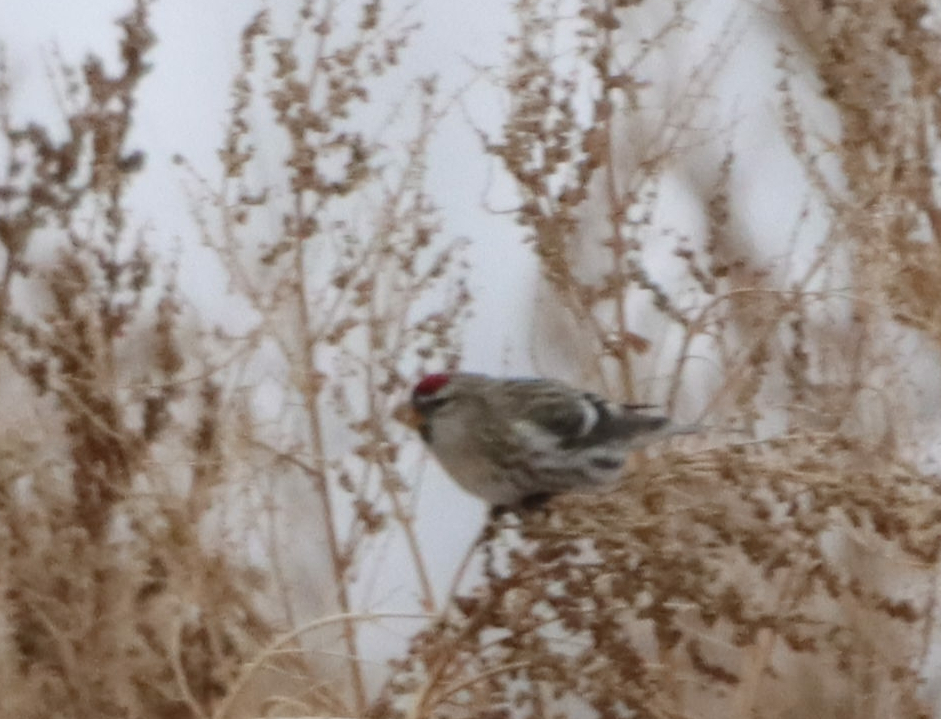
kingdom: Animalia
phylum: Chordata
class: Aves
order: Passeriformes
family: Fringillidae
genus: Acanthis
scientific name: Acanthis flammea
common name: Common redpoll
